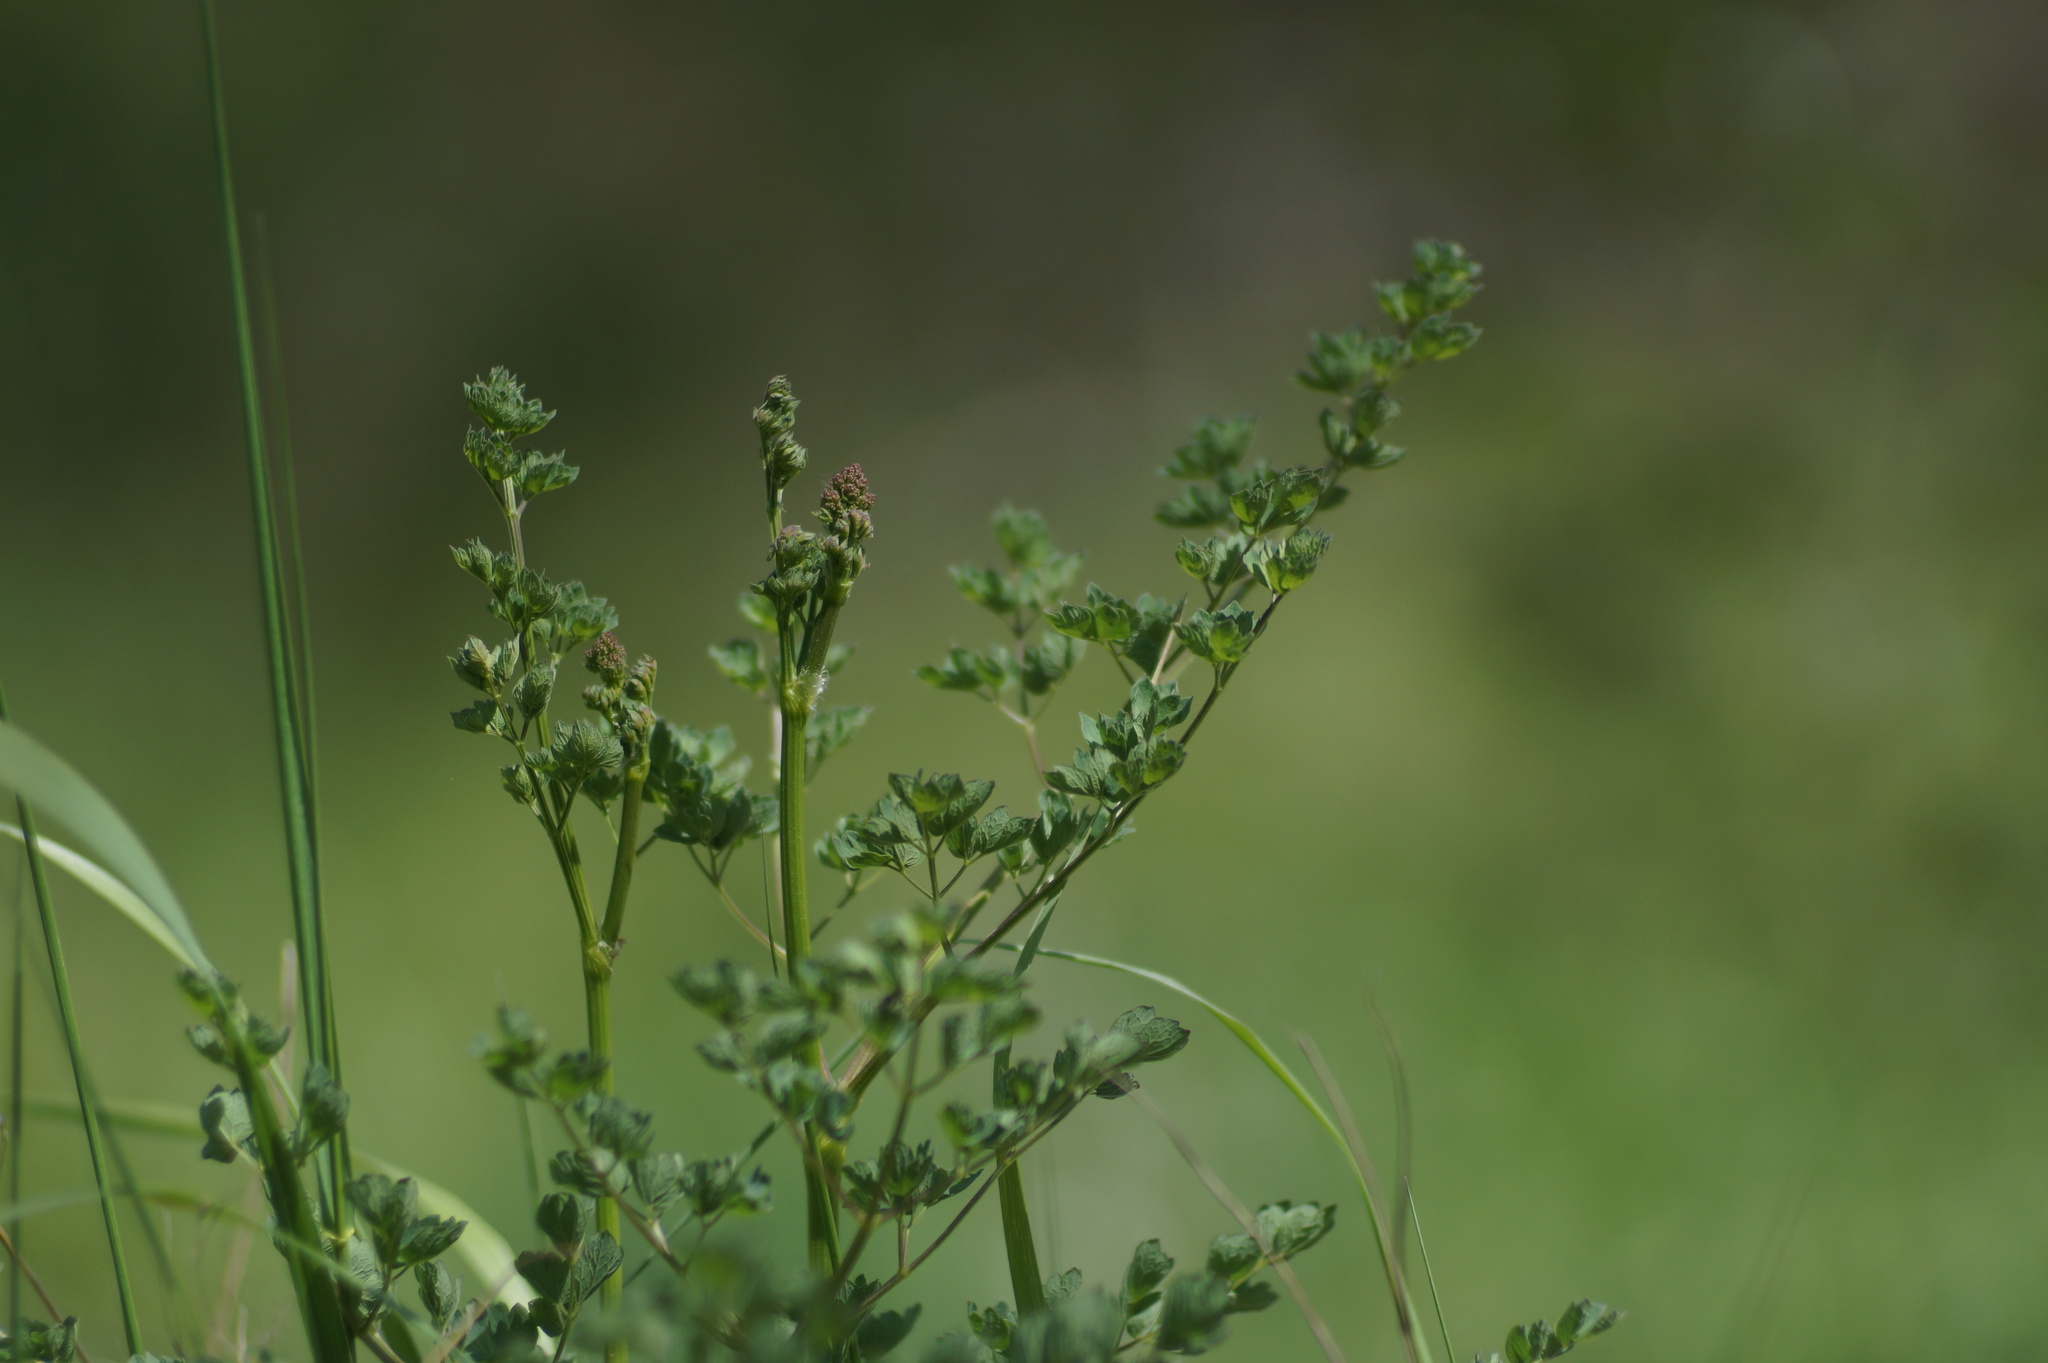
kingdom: Plantae
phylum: Tracheophyta
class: Magnoliopsida
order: Ranunculales
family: Ranunculaceae
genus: Thalictrum
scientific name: Thalictrum minus
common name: Lesser meadow-rue
